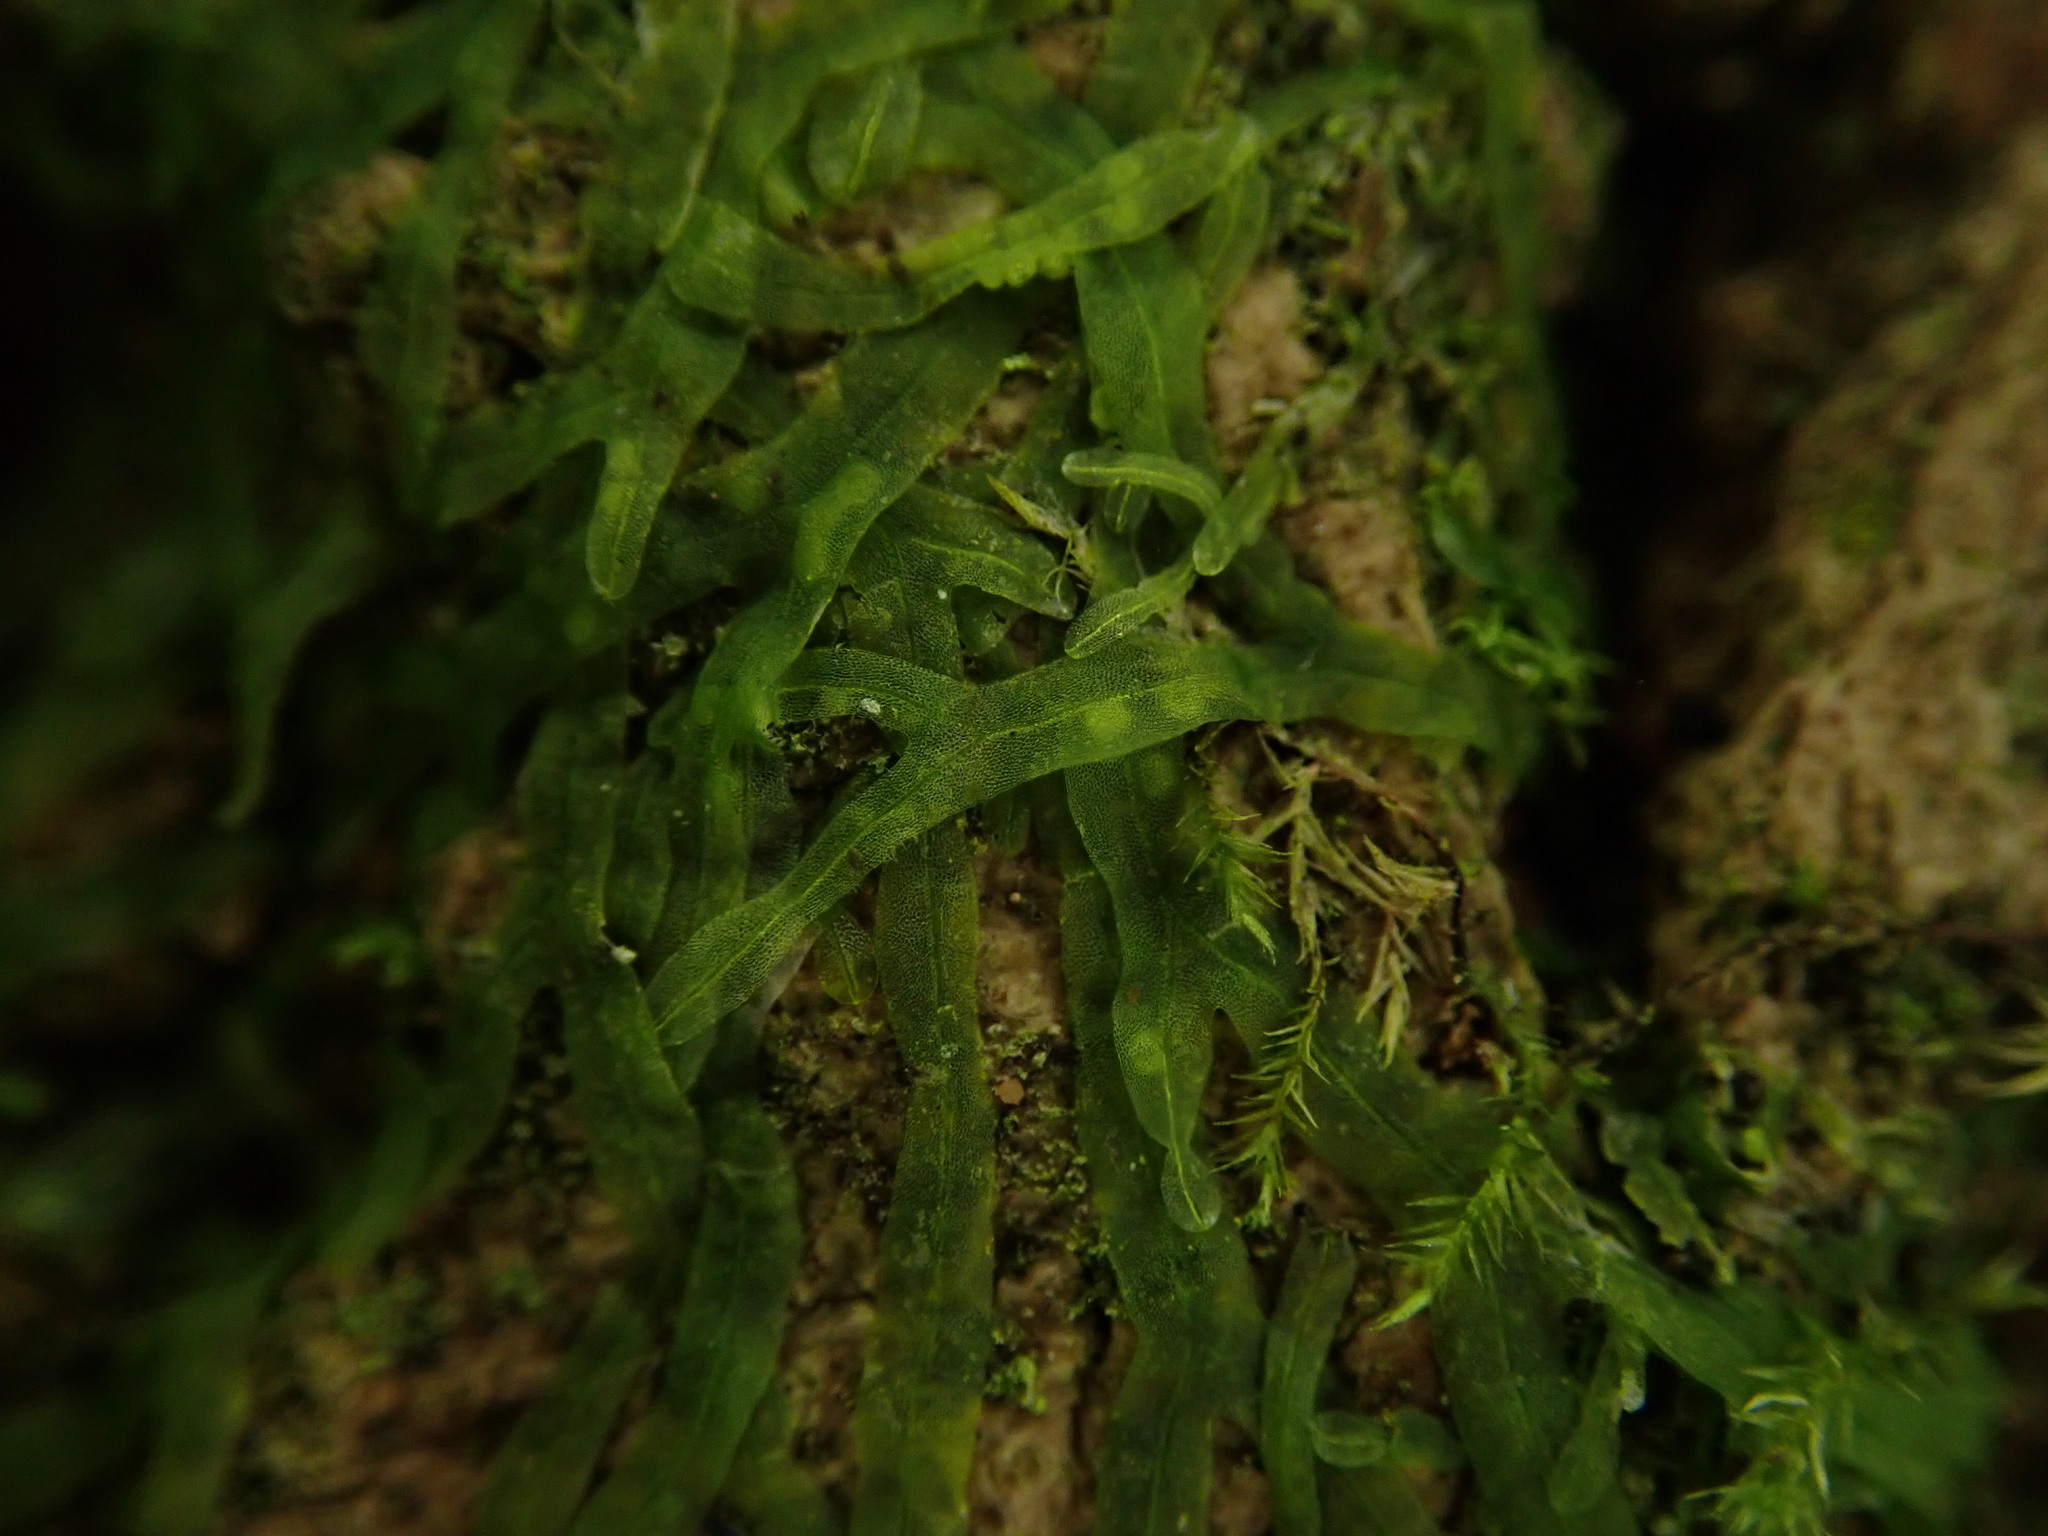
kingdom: Plantae
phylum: Marchantiophyta
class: Jungermanniopsida
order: Metzgeriales
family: Metzgeriaceae
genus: Metzgeria
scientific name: Metzgeria furcata
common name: Forked veilwort
